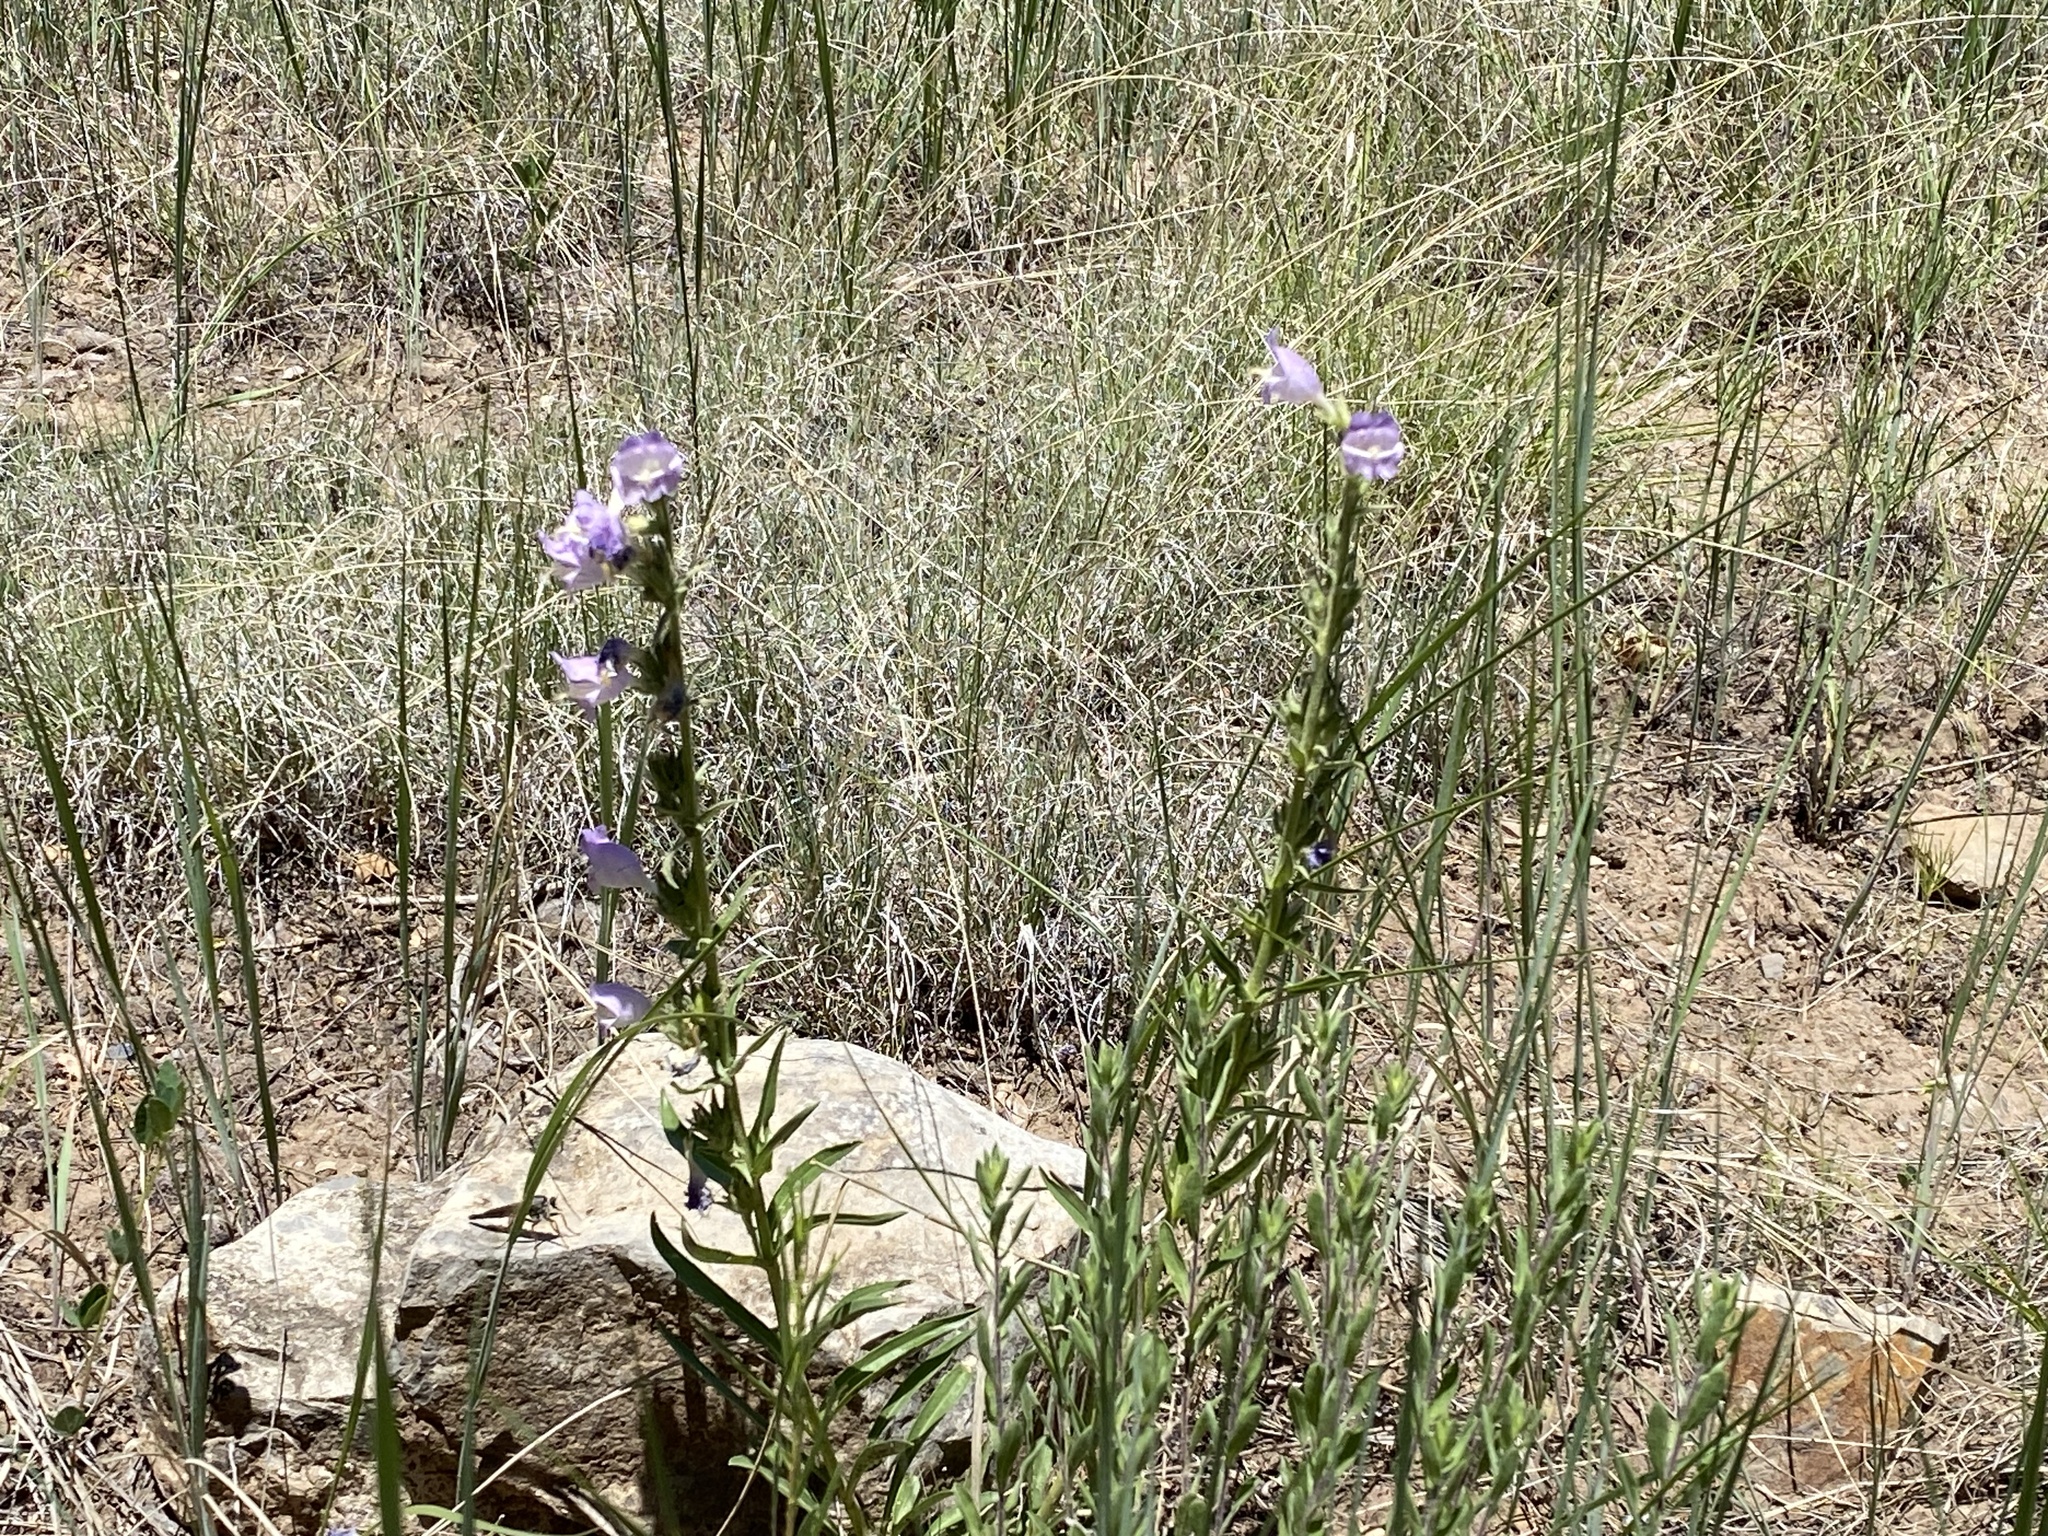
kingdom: Plantae
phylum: Tracheophyta
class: Magnoliopsida
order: Lamiales
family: Plantaginaceae
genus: Penstemon
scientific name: Penstemon jamesii
